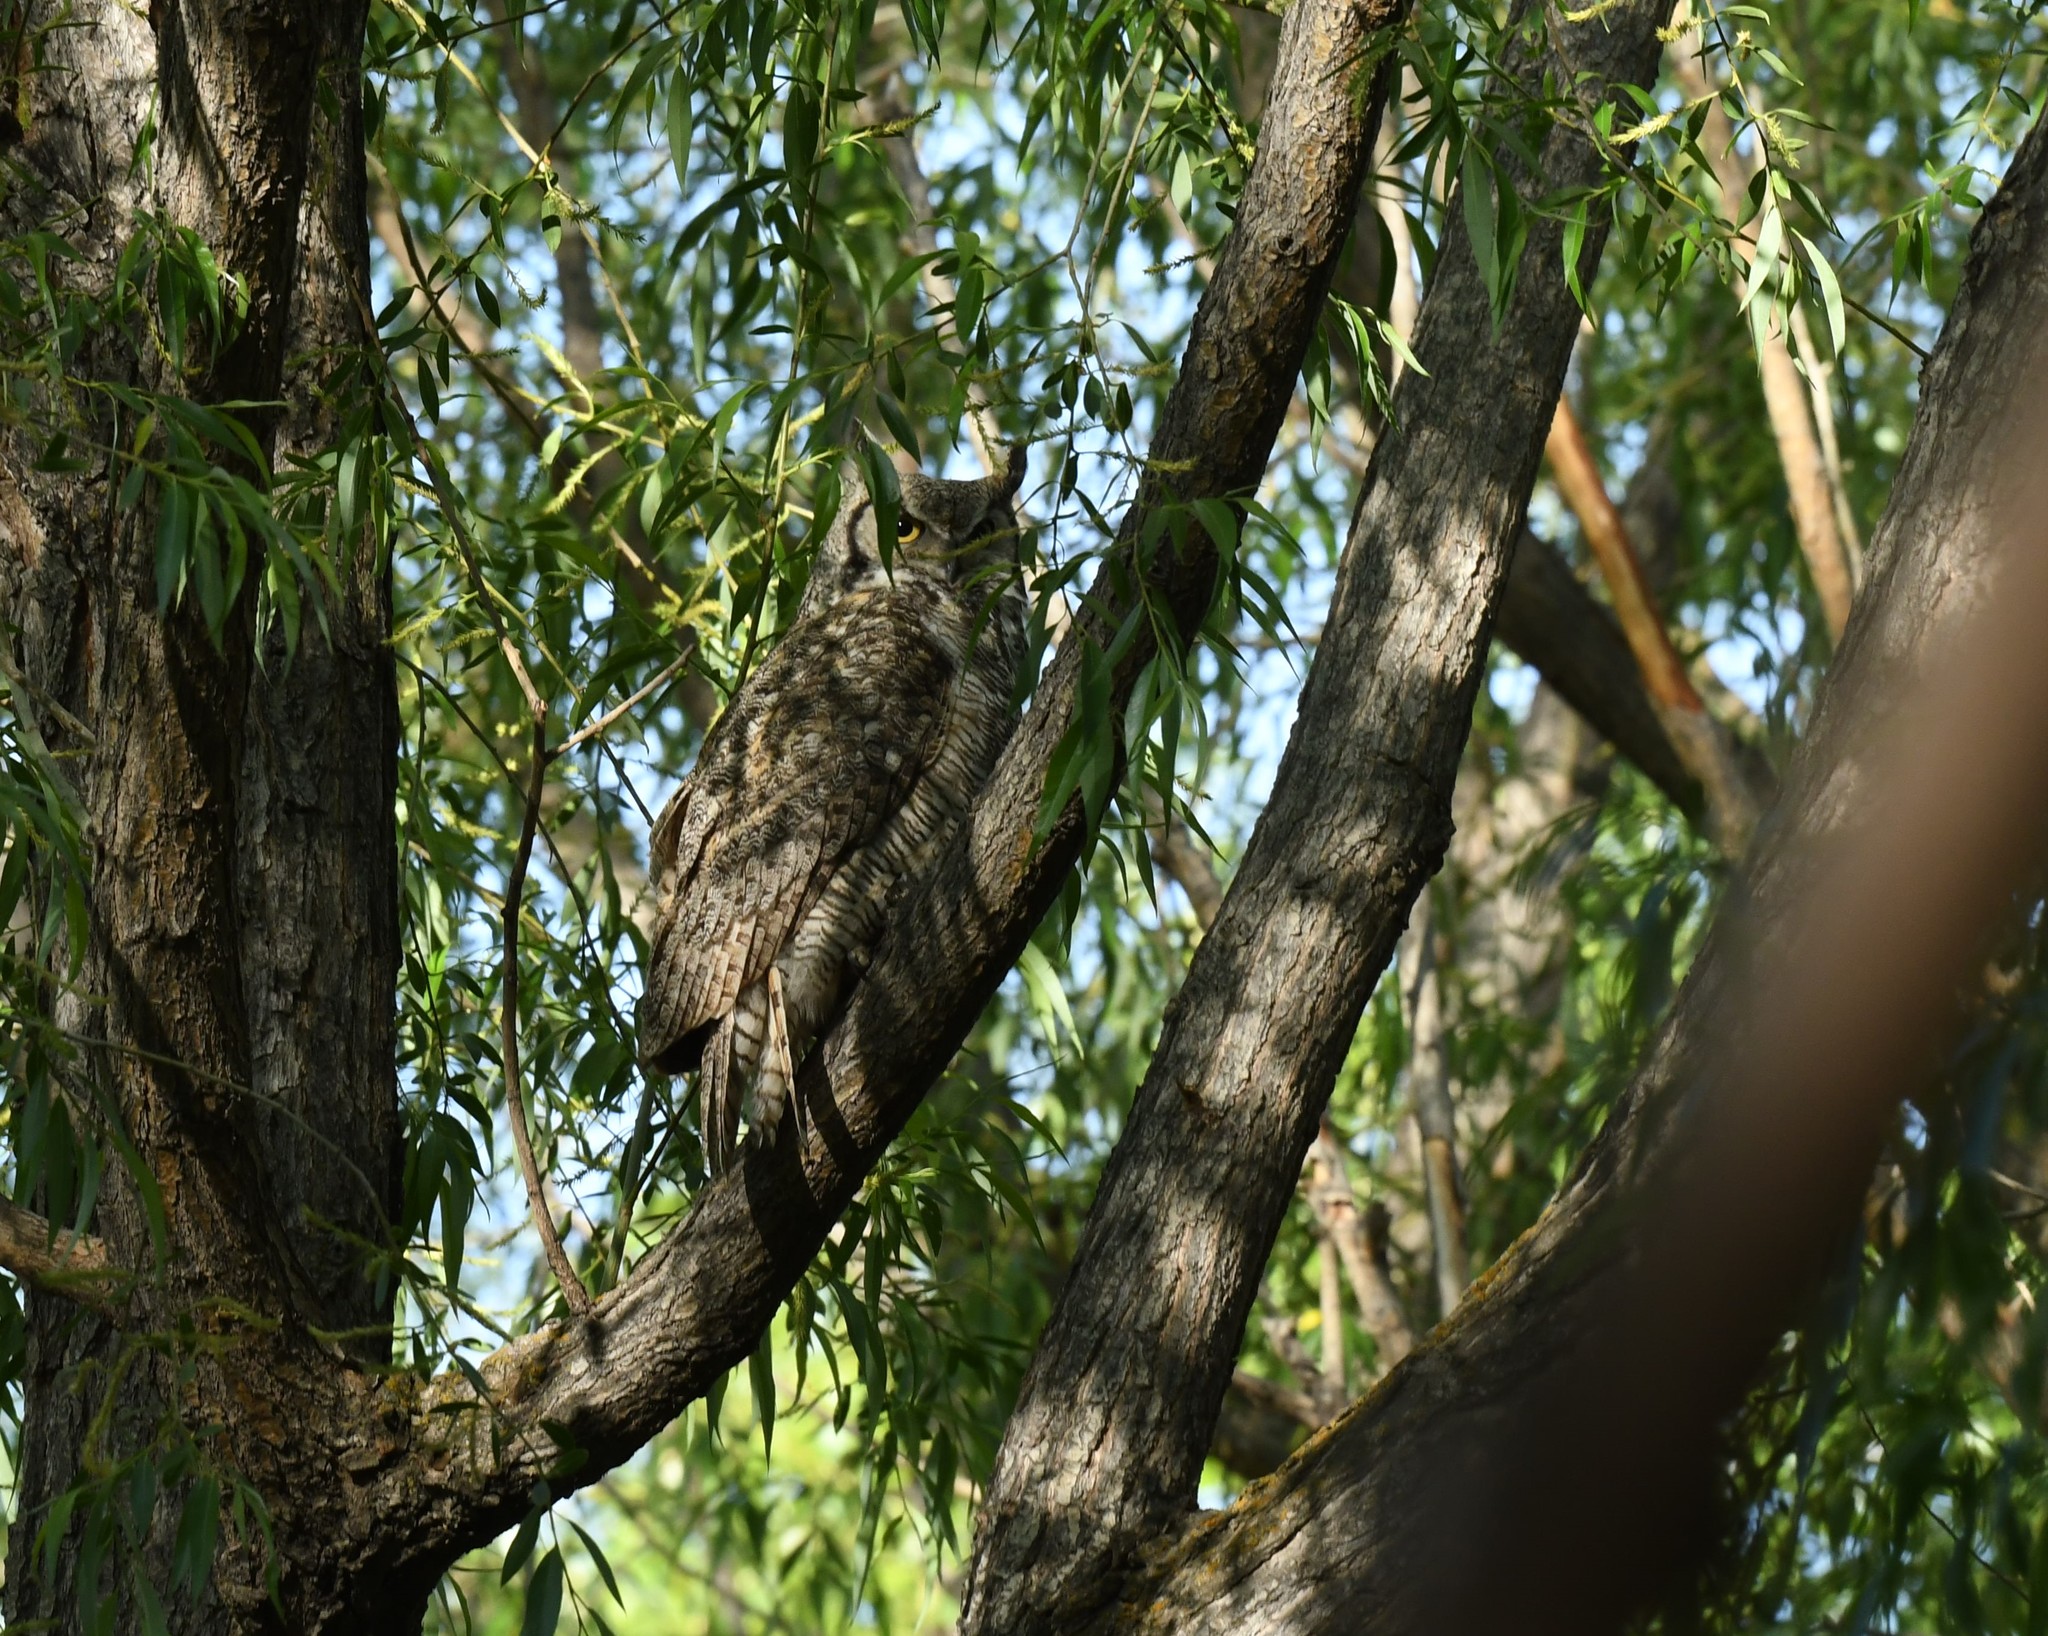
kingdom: Animalia
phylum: Chordata
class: Aves
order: Strigiformes
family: Strigidae
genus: Bubo
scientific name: Bubo virginianus
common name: Great horned owl
